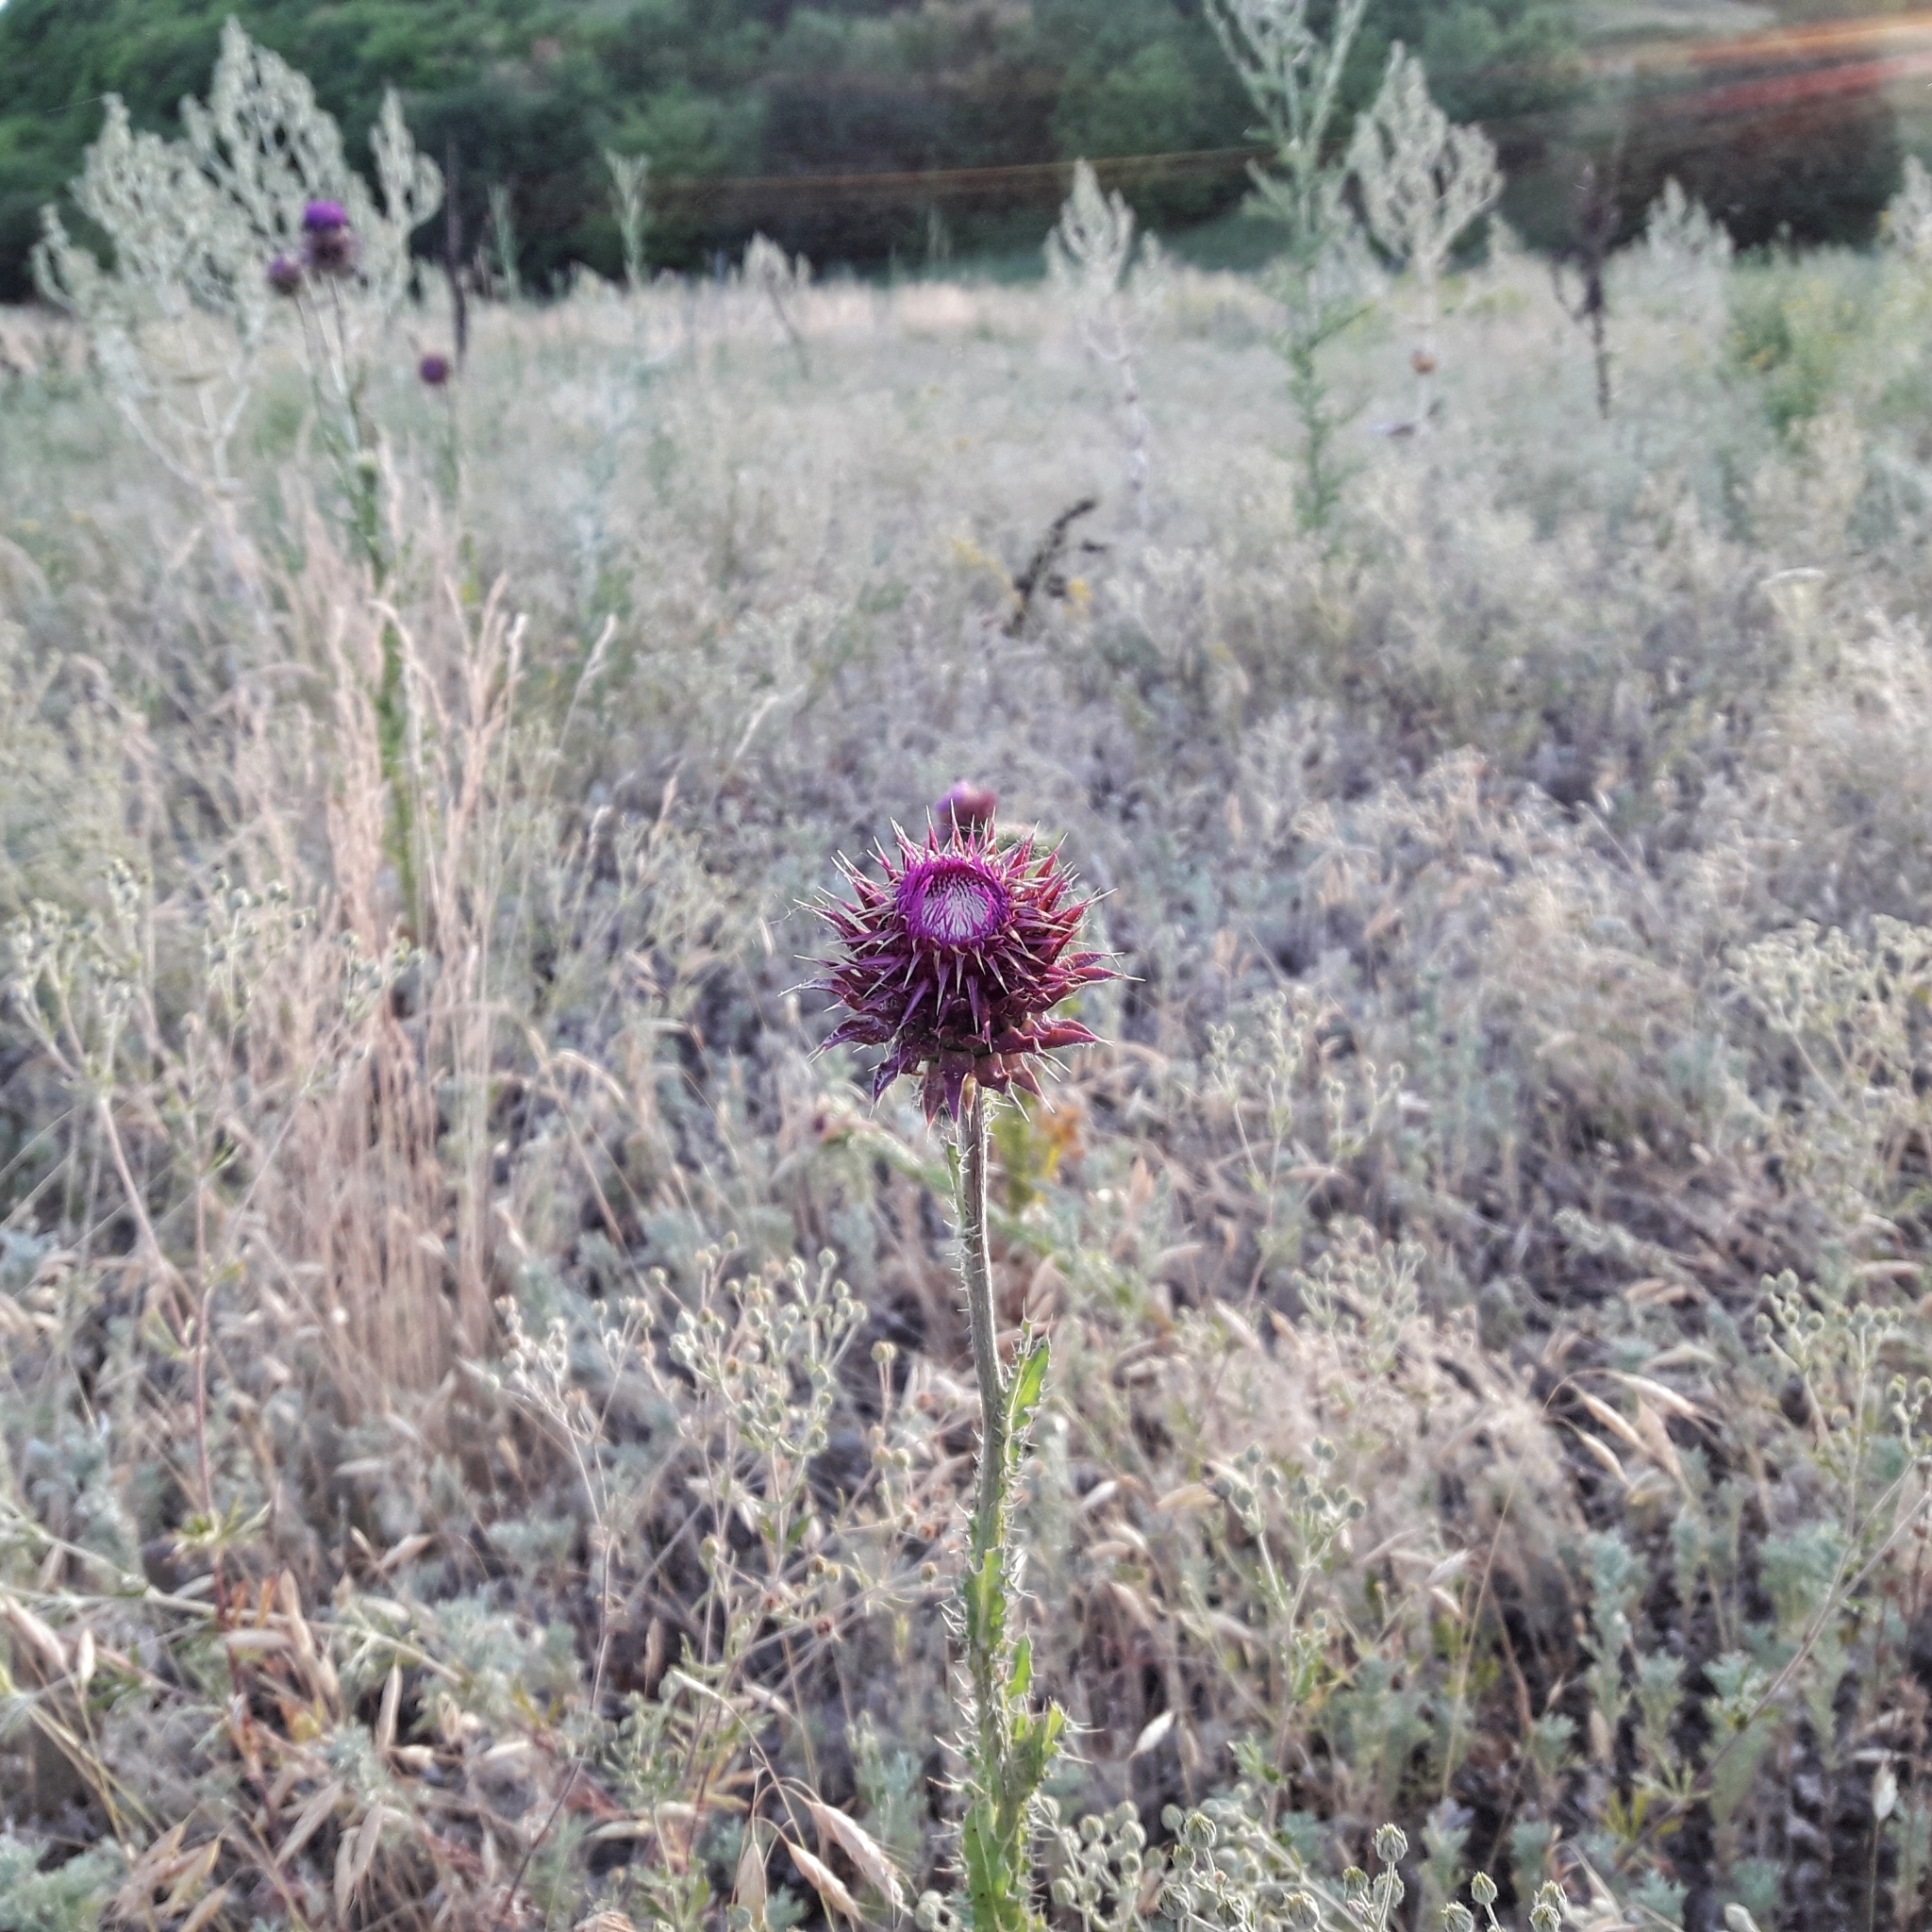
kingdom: Plantae
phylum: Tracheophyta
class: Magnoliopsida
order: Asterales
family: Asteraceae
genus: Carduus
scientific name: Carduus nutans
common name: Musk thistle
